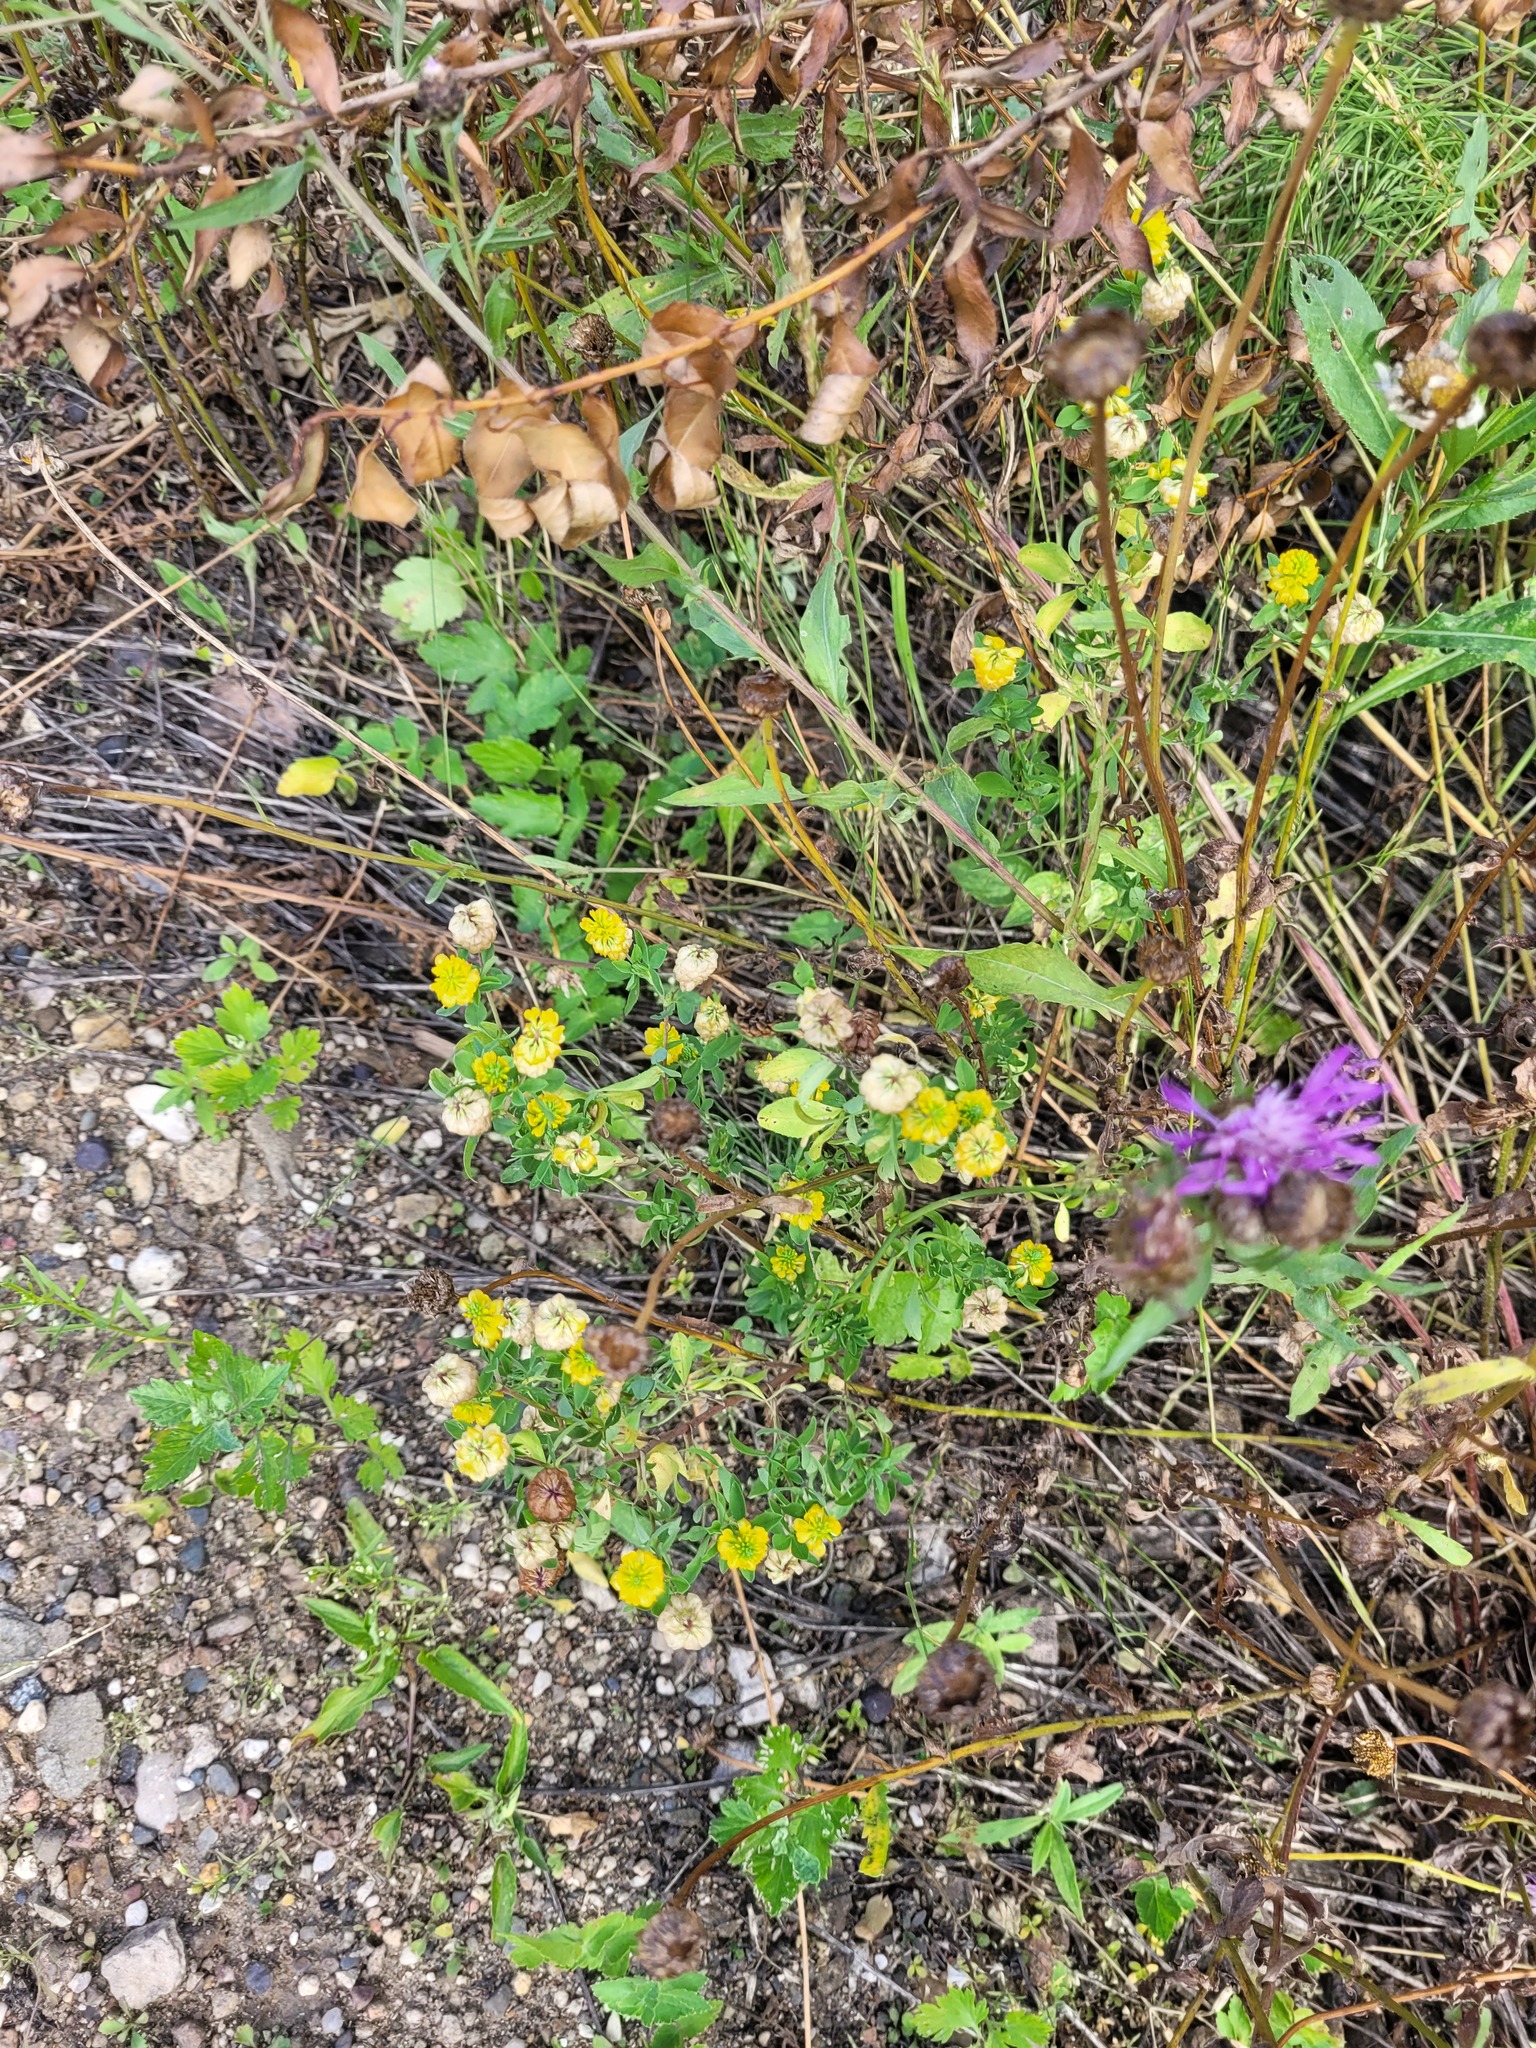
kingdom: Plantae
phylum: Tracheophyta
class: Magnoliopsida
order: Fabales
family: Fabaceae
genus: Trifolium
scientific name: Trifolium aureum
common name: Golden clover
